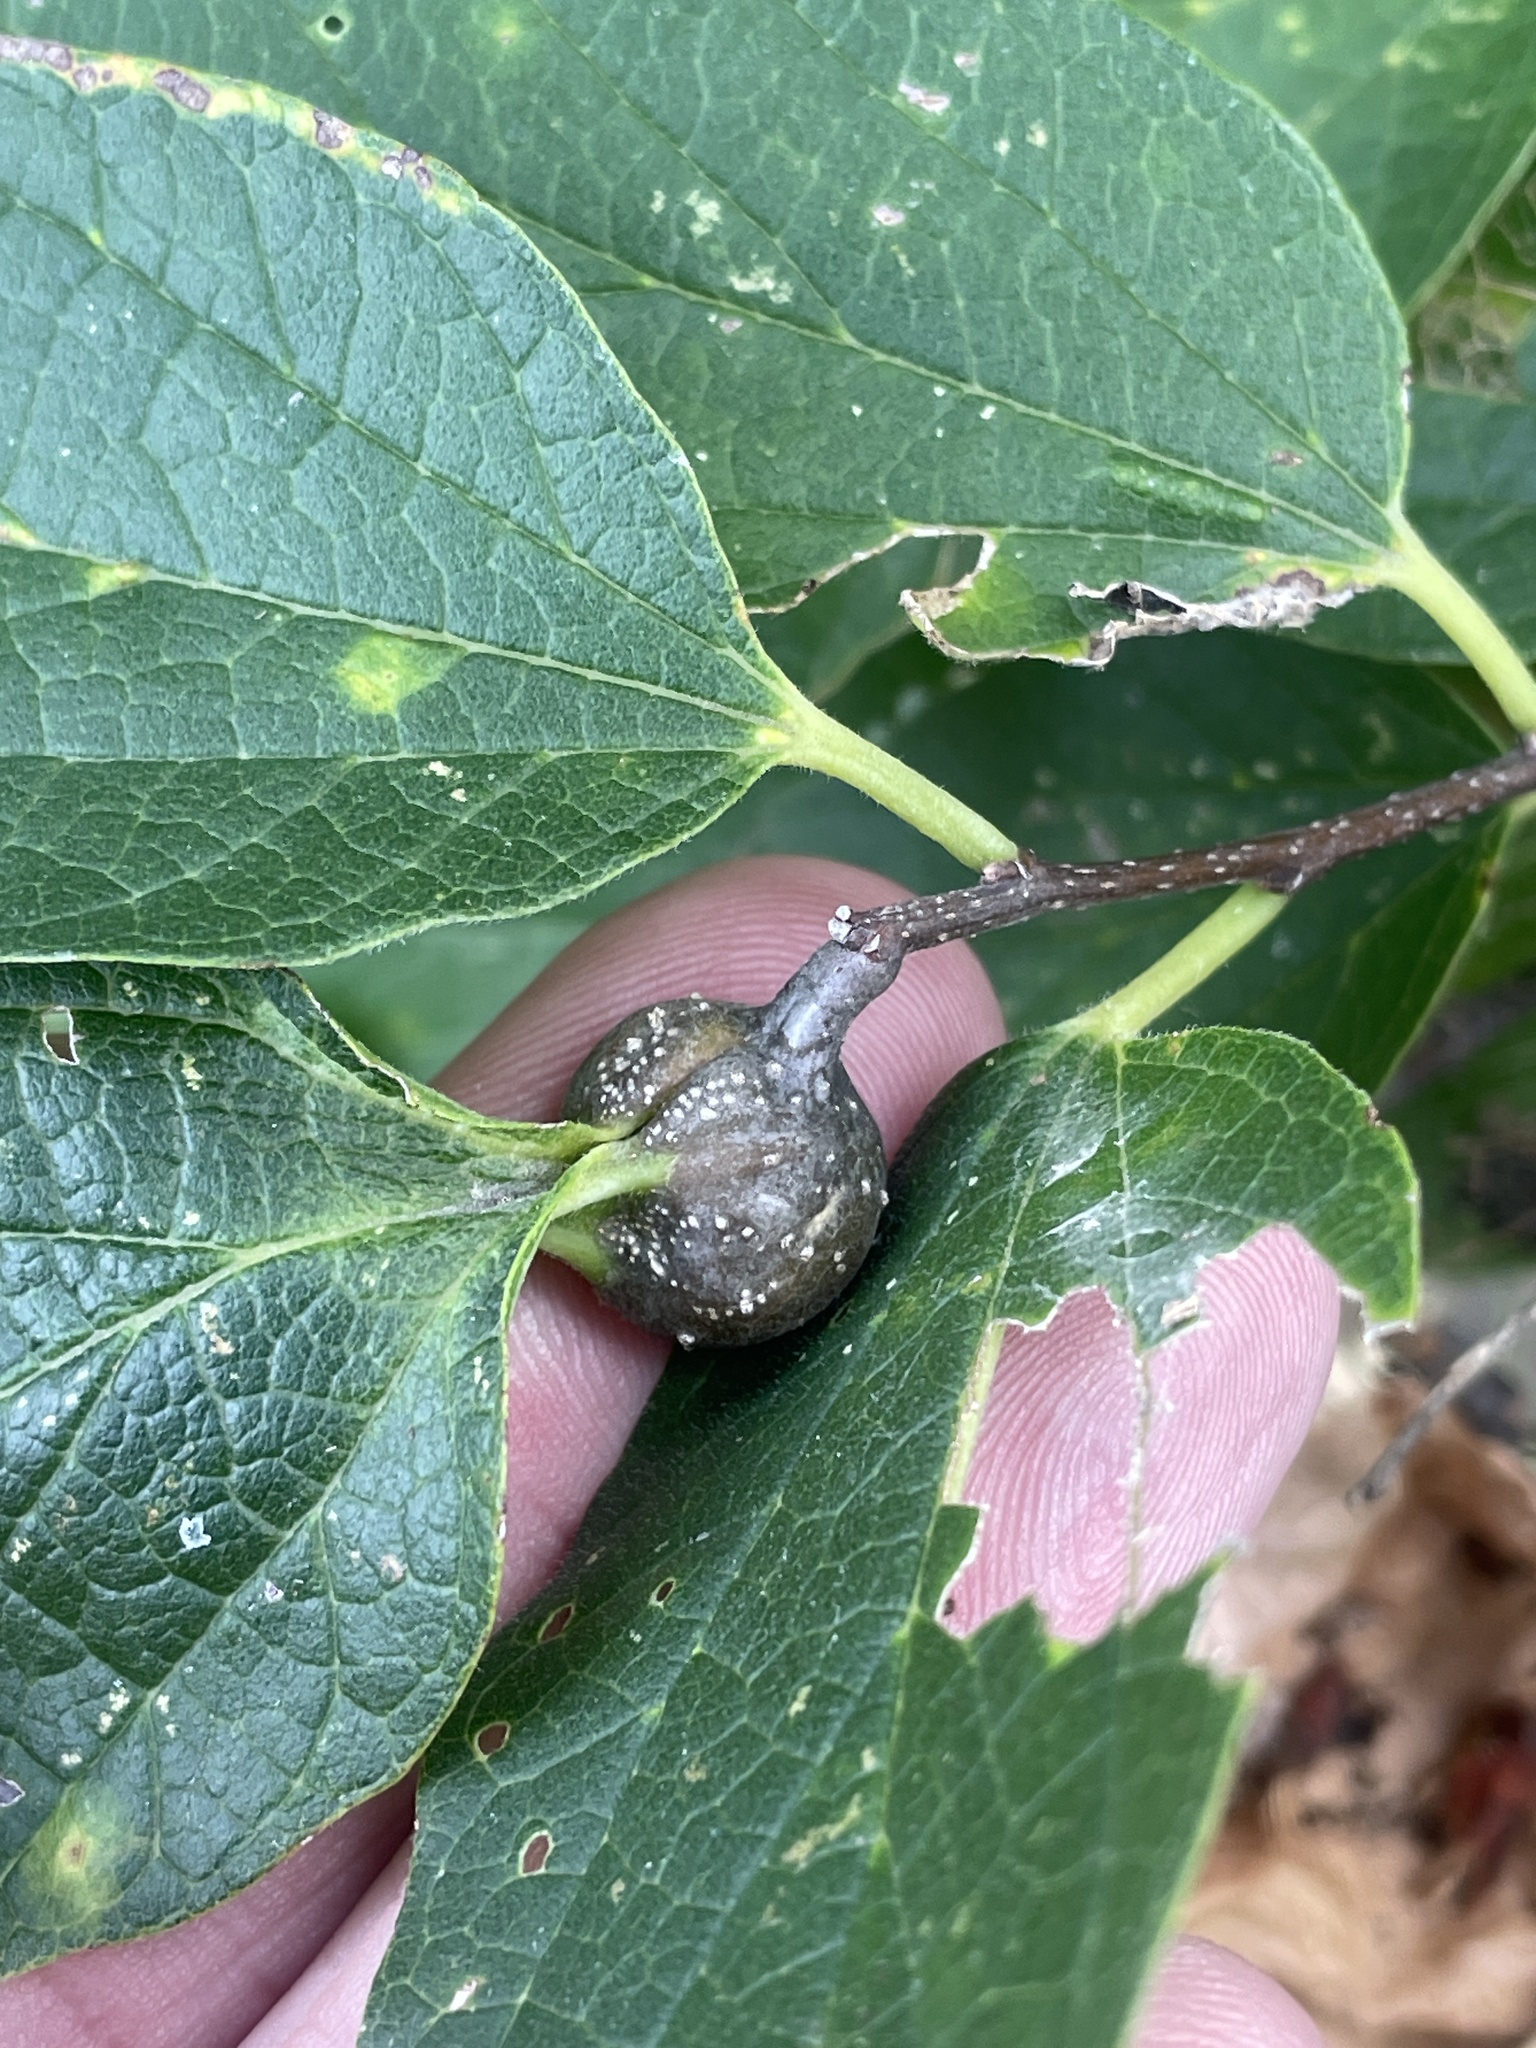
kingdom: Animalia
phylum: Arthropoda
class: Insecta
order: Hemiptera
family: Aphalaridae
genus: Pachypsylla
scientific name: Pachypsylla venusta
